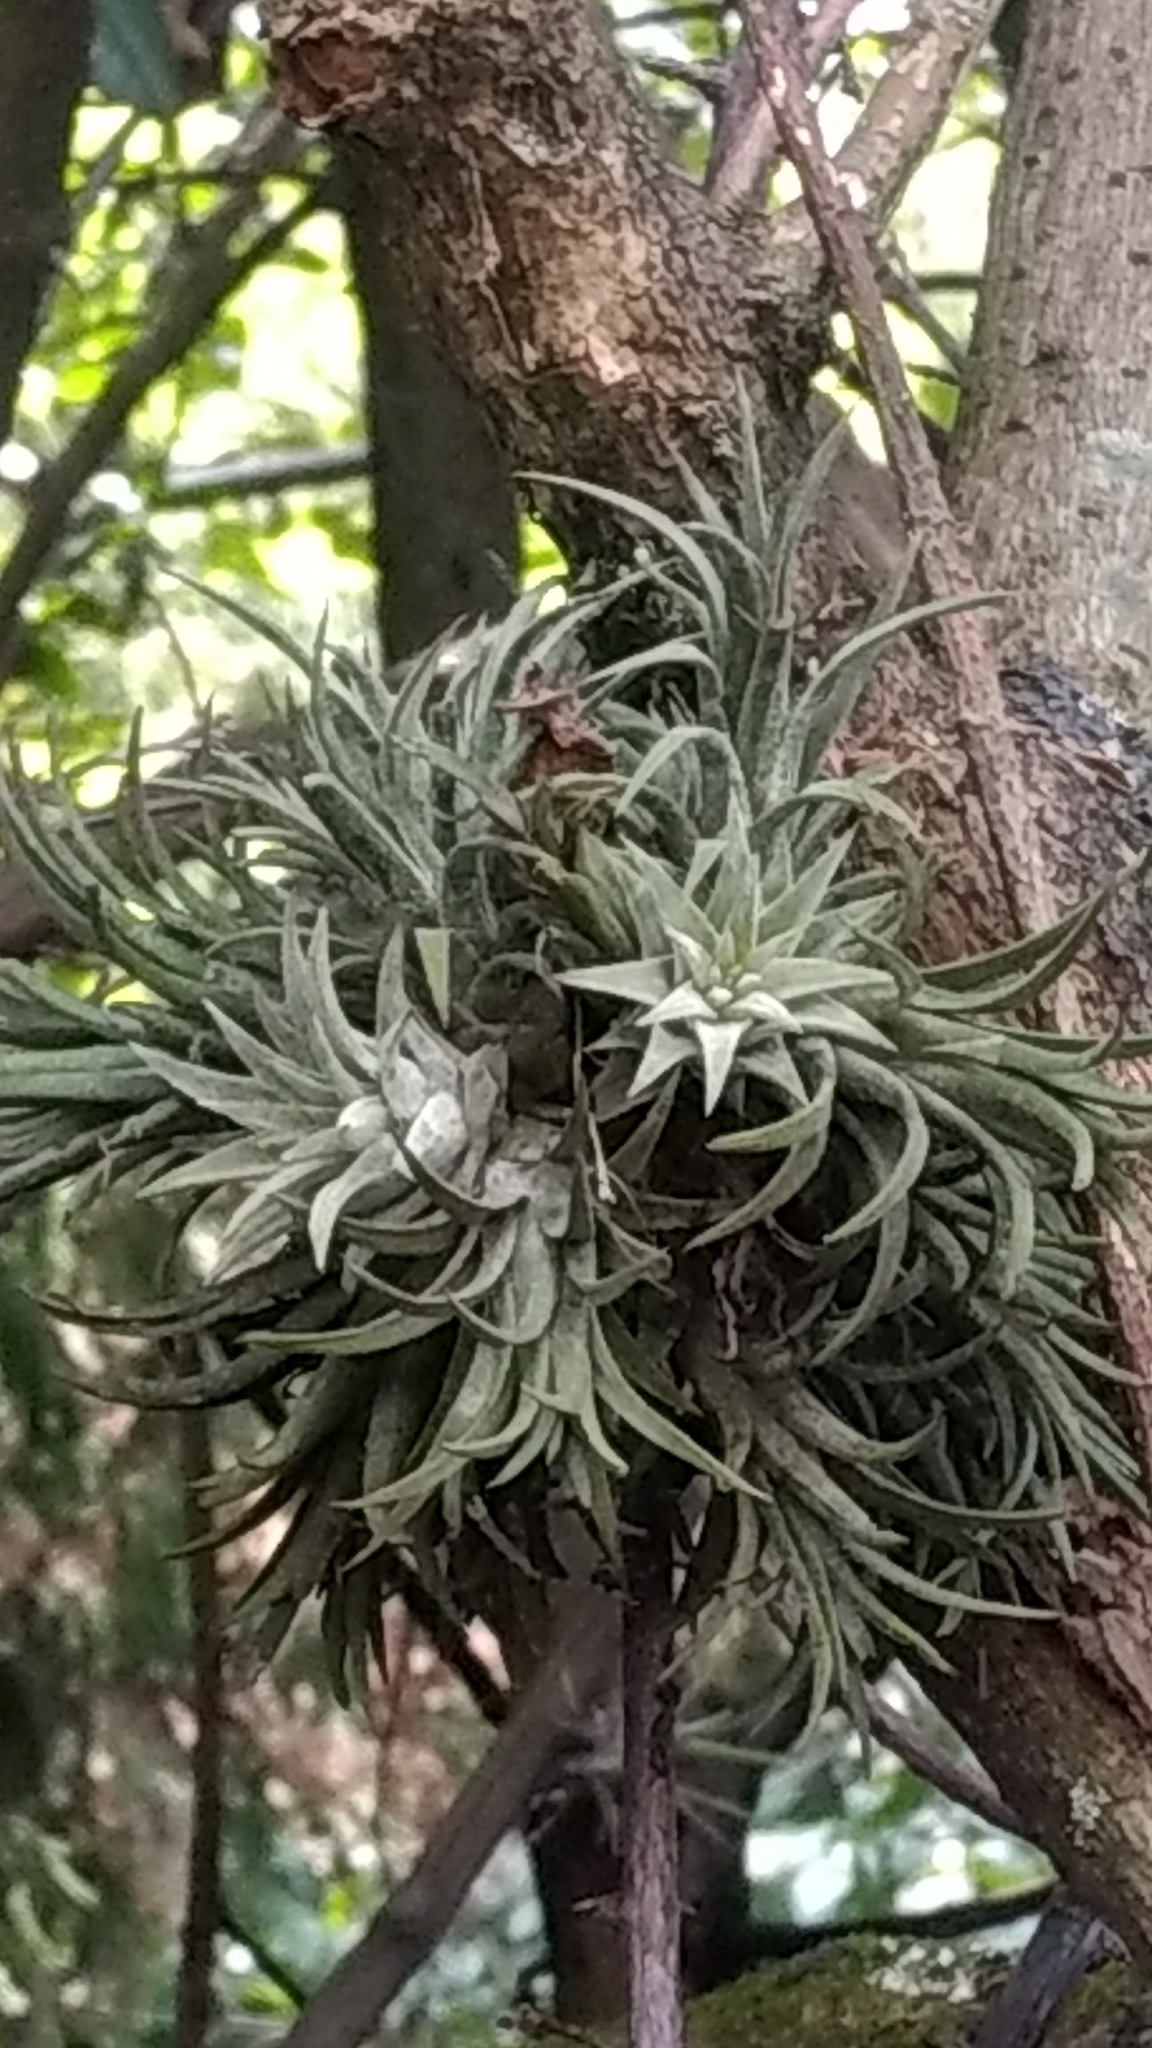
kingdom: Plantae
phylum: Tracheophyta
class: Liliopsida
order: Poales
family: Bromeliaceae
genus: Tillandsia
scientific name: Tillandsia ionantha
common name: Sky plant
